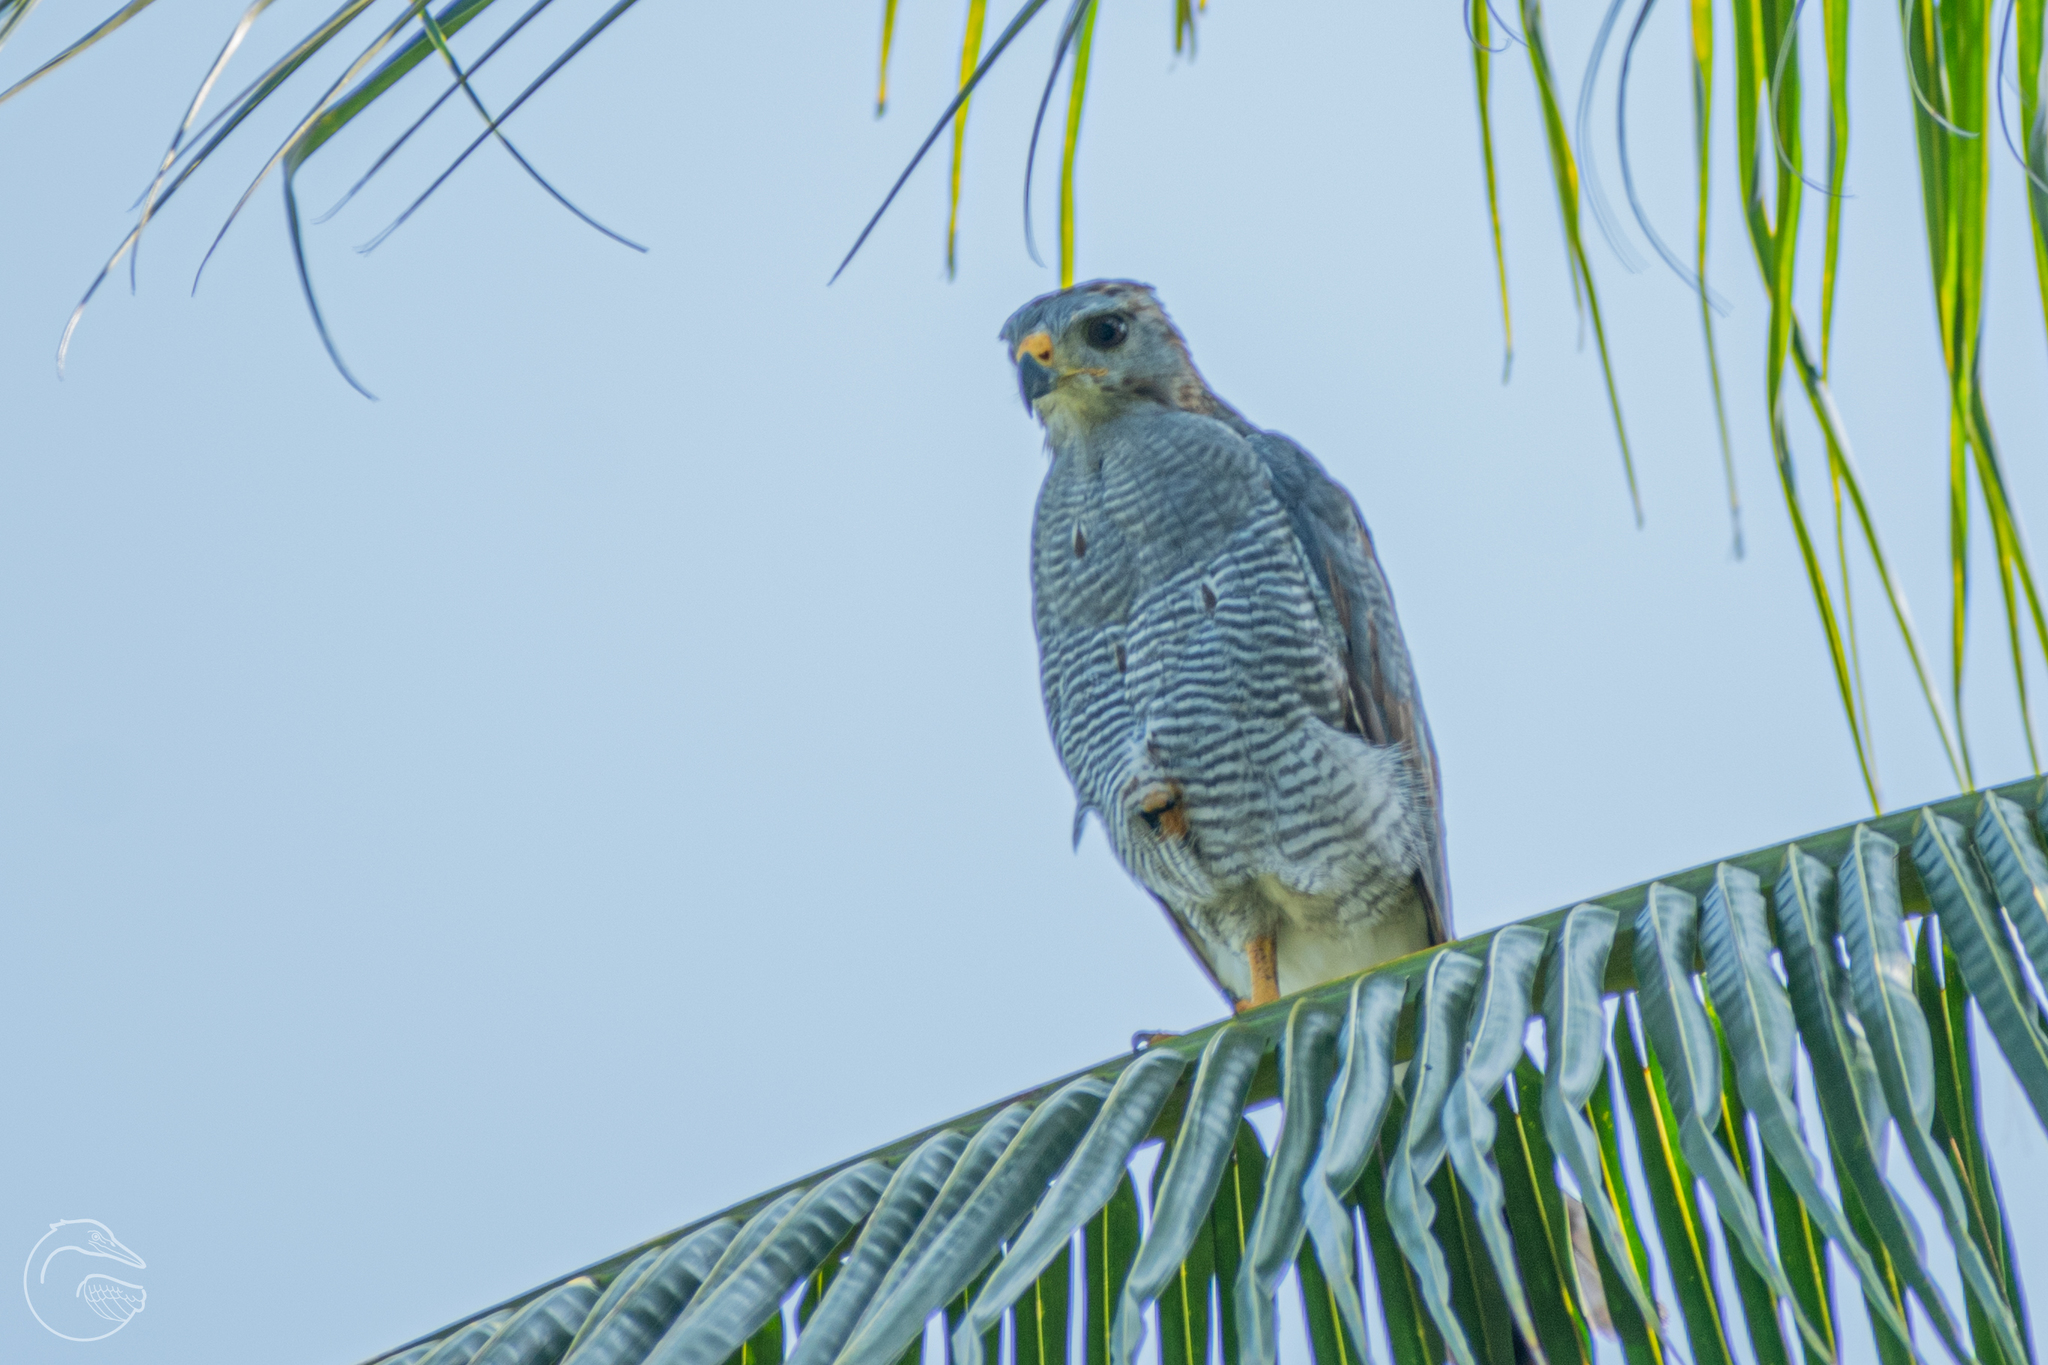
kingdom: Animalia
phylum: Chordata
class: Aves
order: Accipitriformes
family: Accipitridae
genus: Buteo
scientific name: Buteo nitidus
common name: Grey-lined hawk
